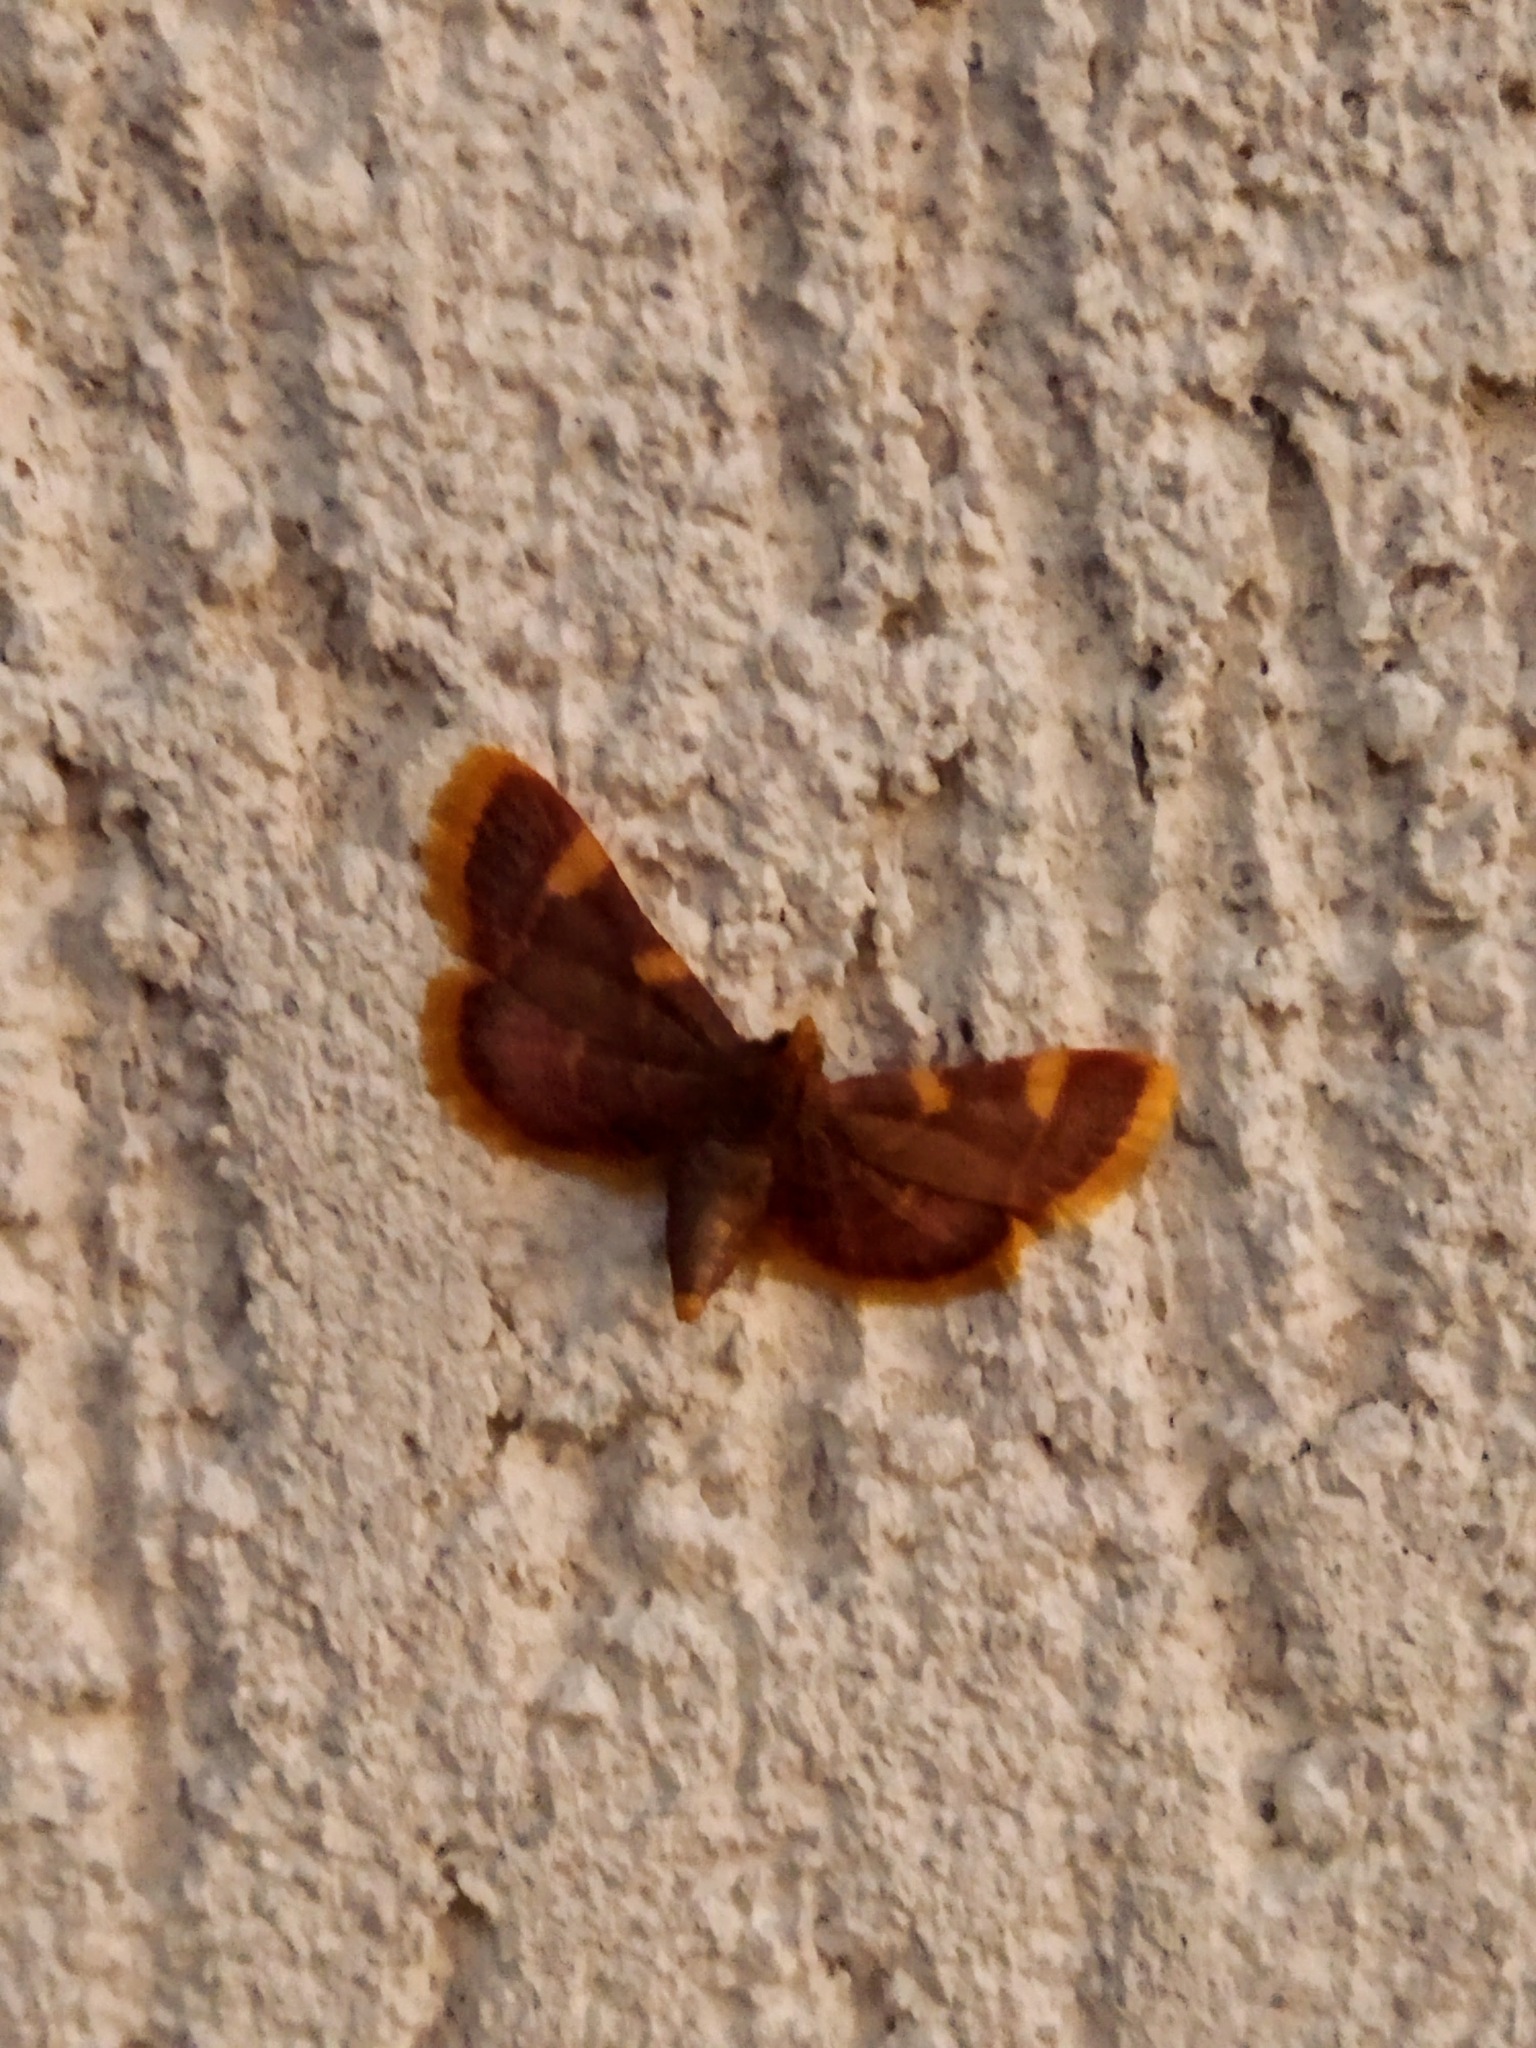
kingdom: Animalia
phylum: Arthropoda
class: Insecta
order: Lepidoptera
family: Pyralidae
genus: Hypsopygia
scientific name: Hypsopygia costalis
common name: Gold triangle
